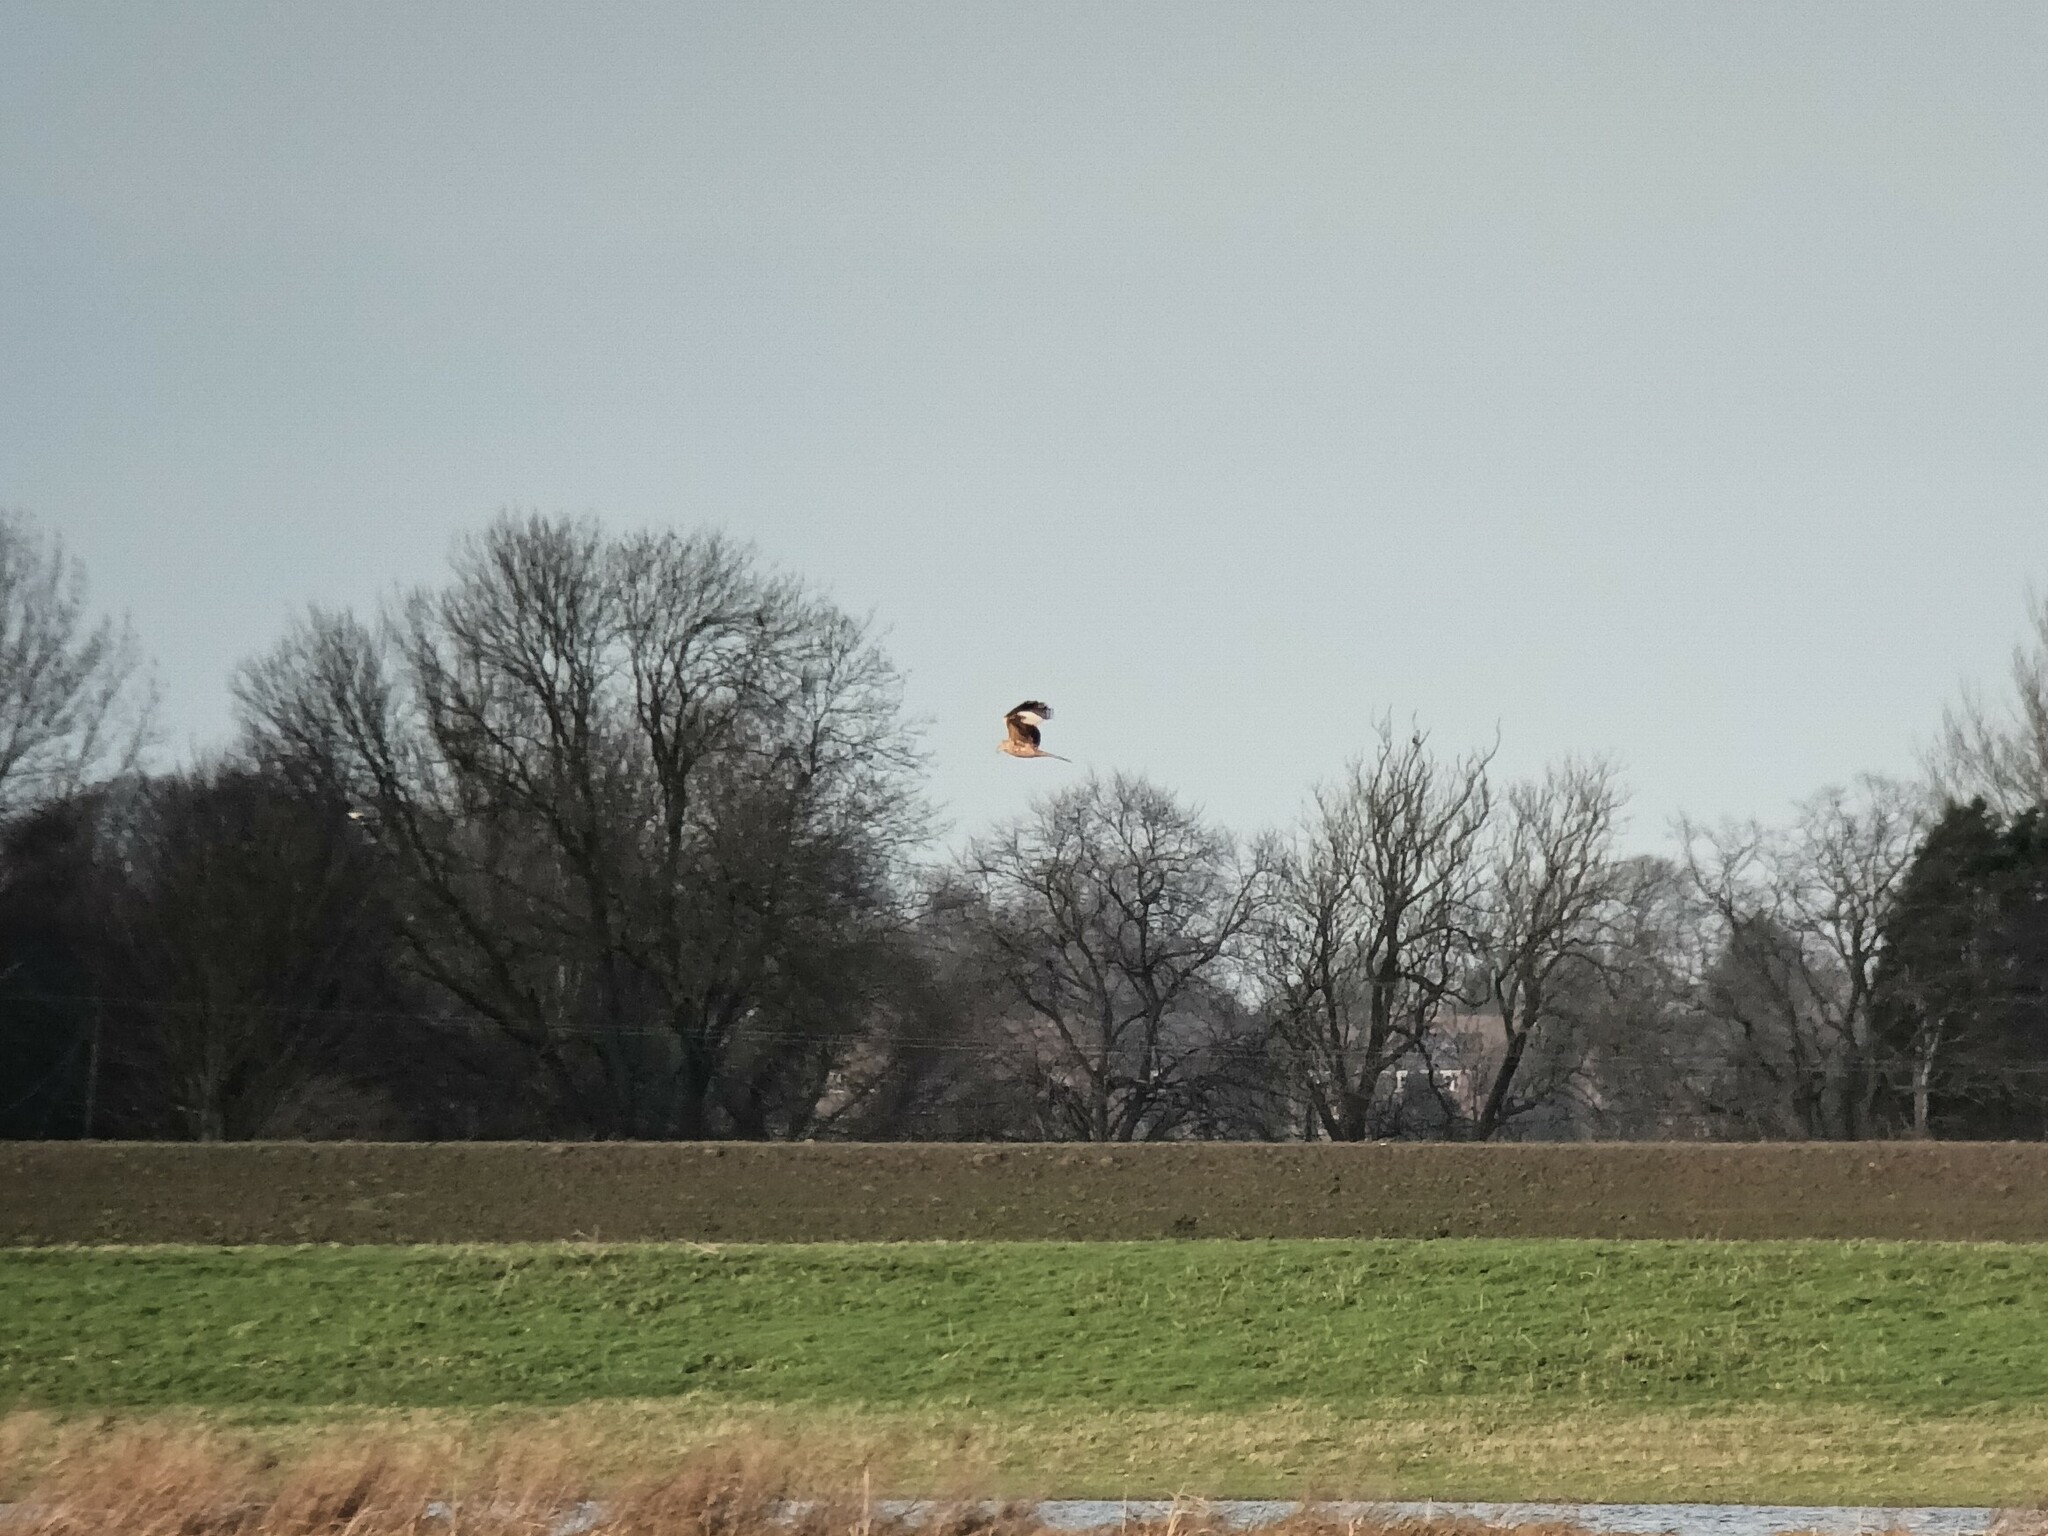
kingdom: Animalia
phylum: Chordata
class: Aves
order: Accipitriformes
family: Accipitridae
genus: Milvus
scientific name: Milvus milvus
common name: Red kite
